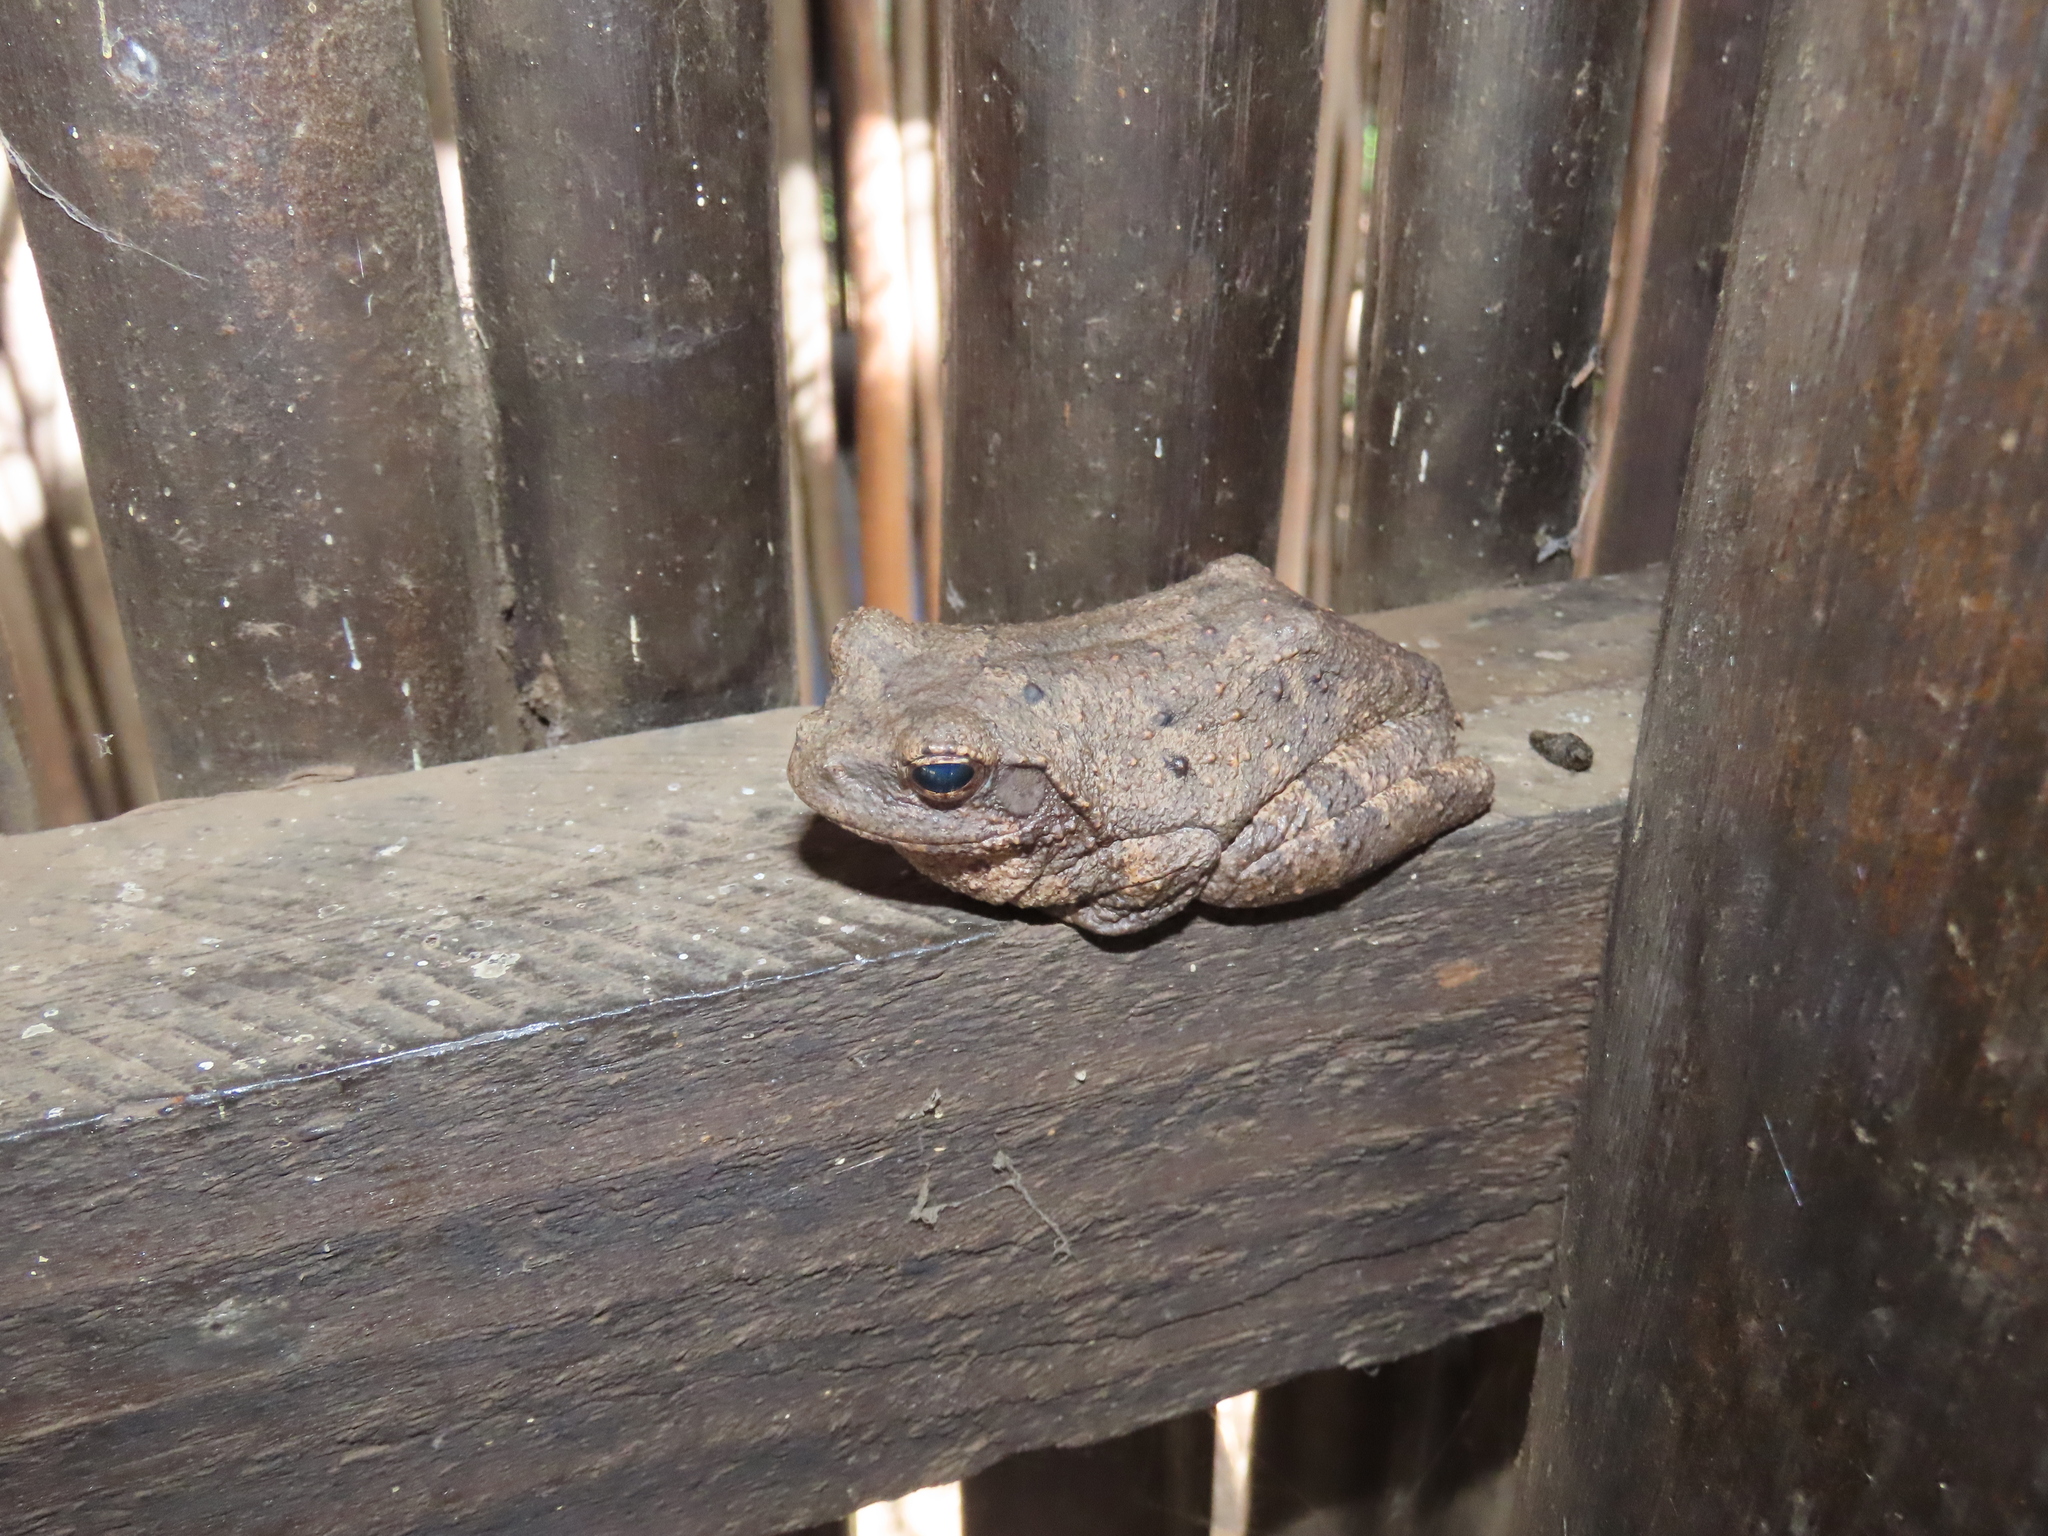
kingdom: Animalia
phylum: Chordata
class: Amphibia
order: Anura
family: Rhacophoridae
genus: Chiromantis
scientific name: Chiromantis xerampelina
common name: African gray treefrog
